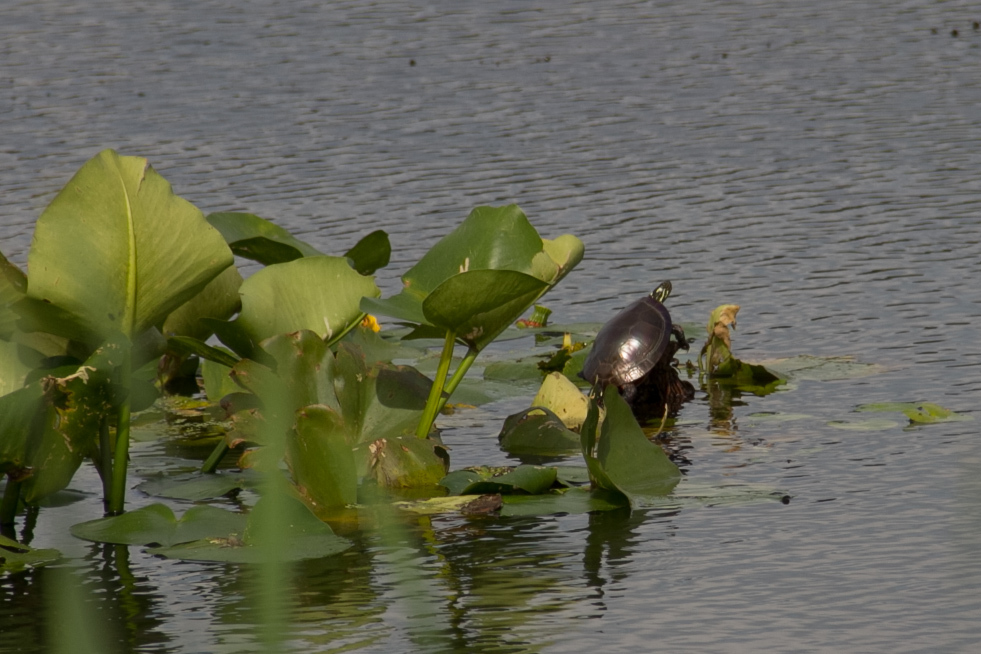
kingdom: Animalia
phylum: Chordata
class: Testudines
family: Emydidae
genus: Chrysemys
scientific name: Chrysemys picta
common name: Painted turtle
